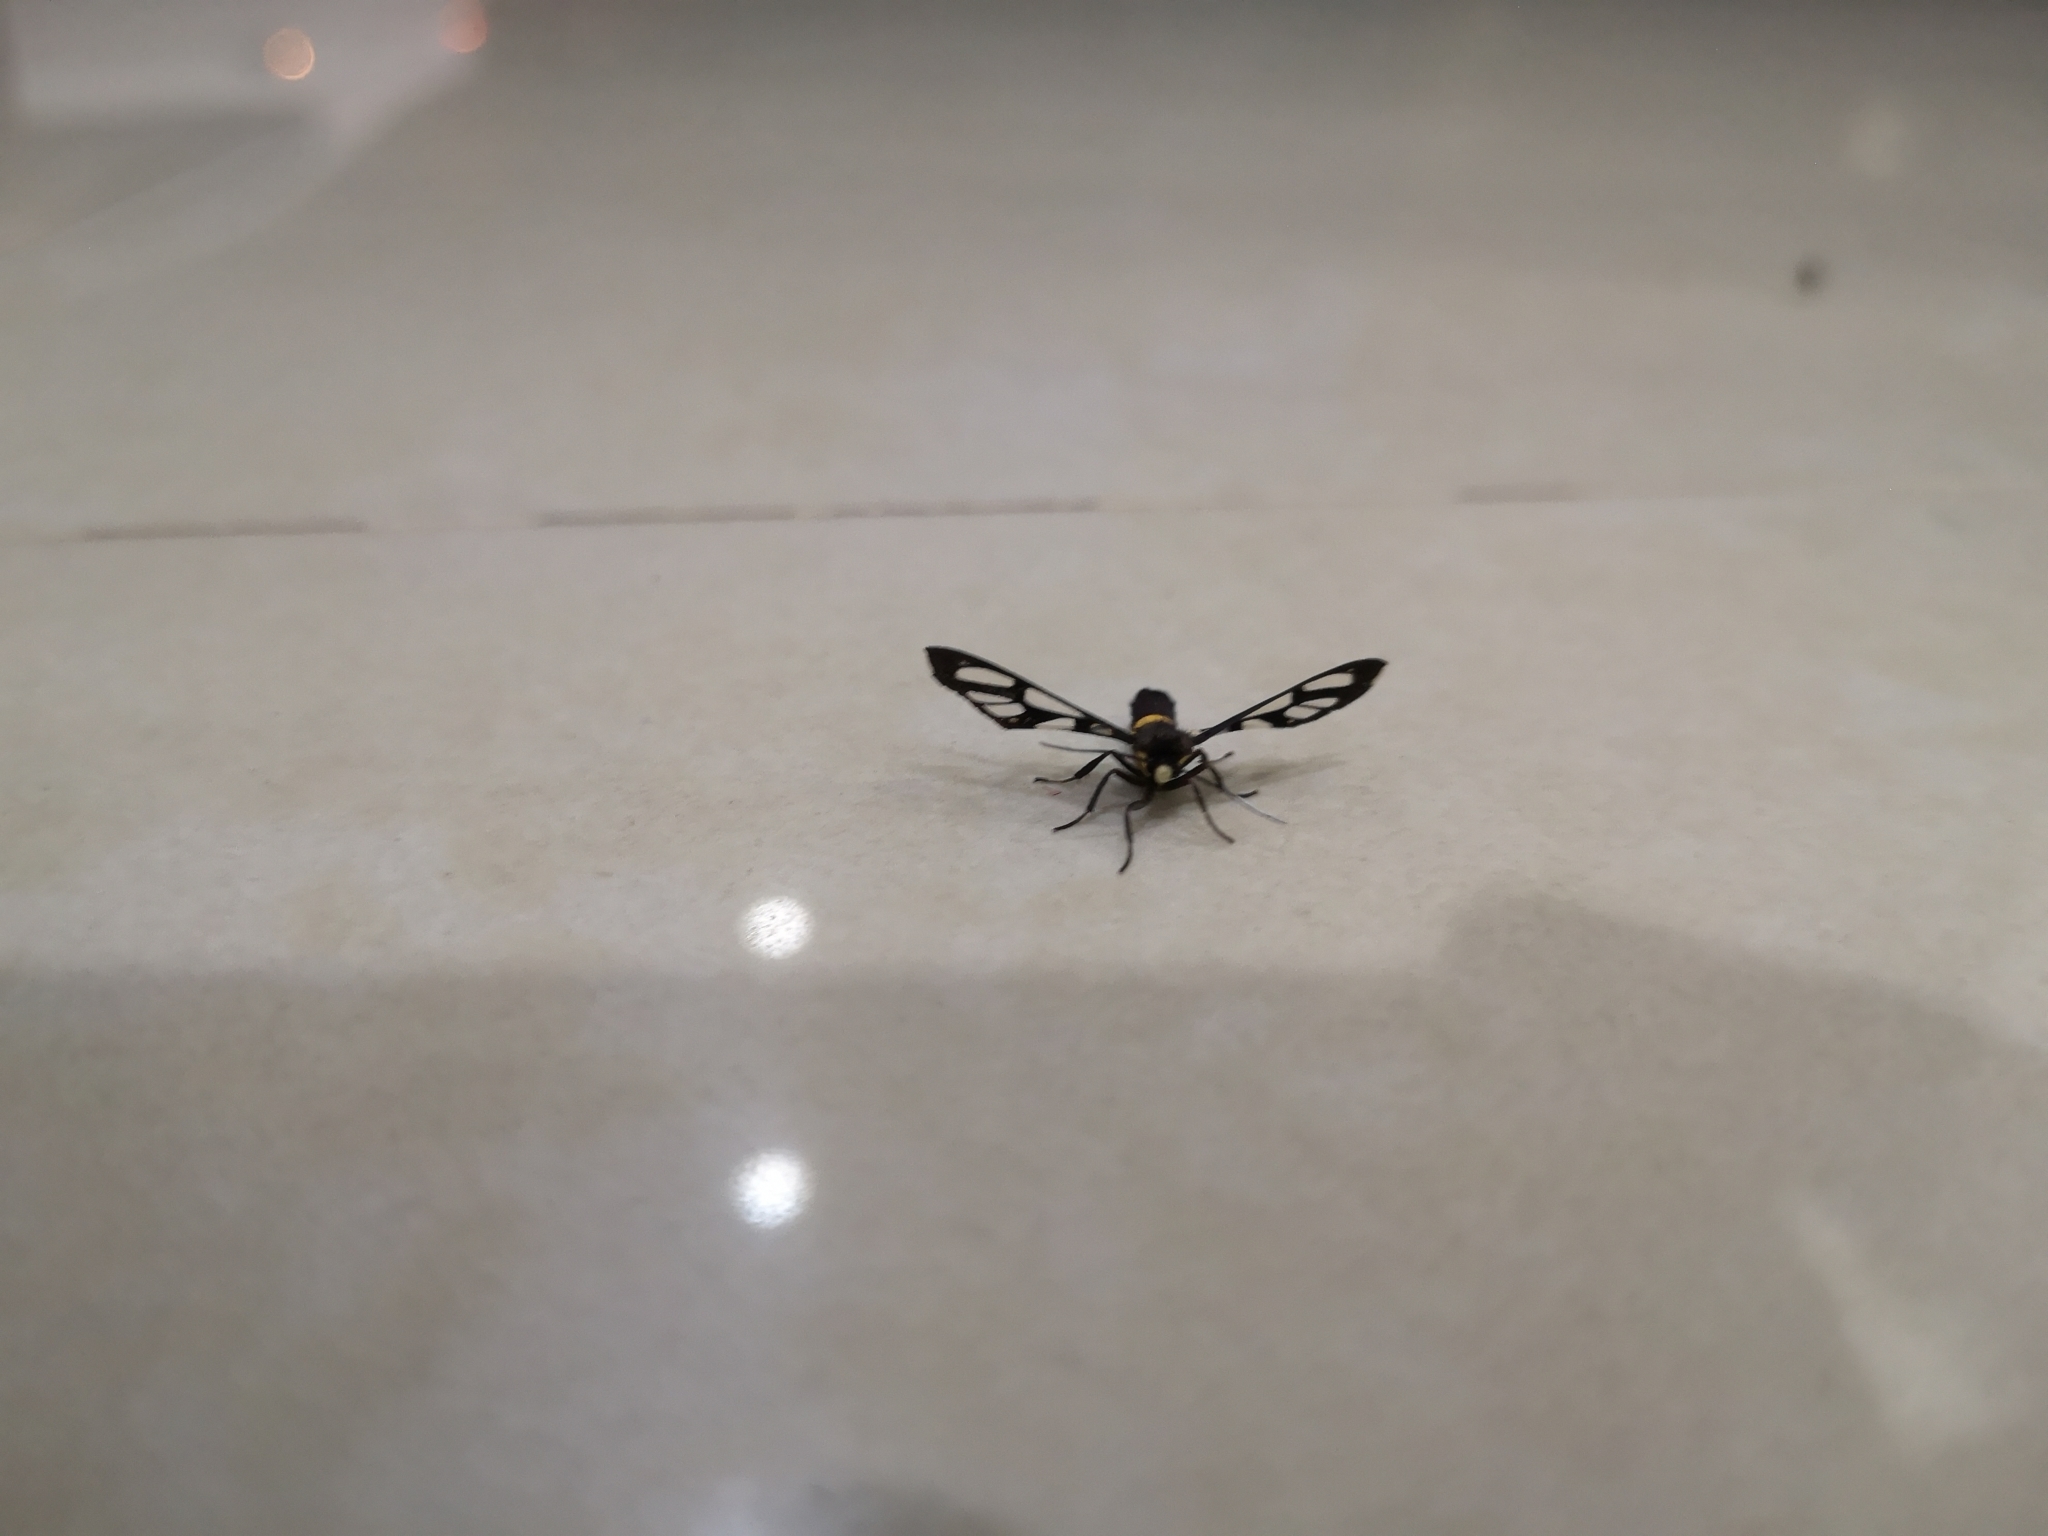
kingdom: Animalia
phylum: Arthropoda
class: Insecta
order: Lepidoptera
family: Erebidae
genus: Amata
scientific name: Amata sperbius
